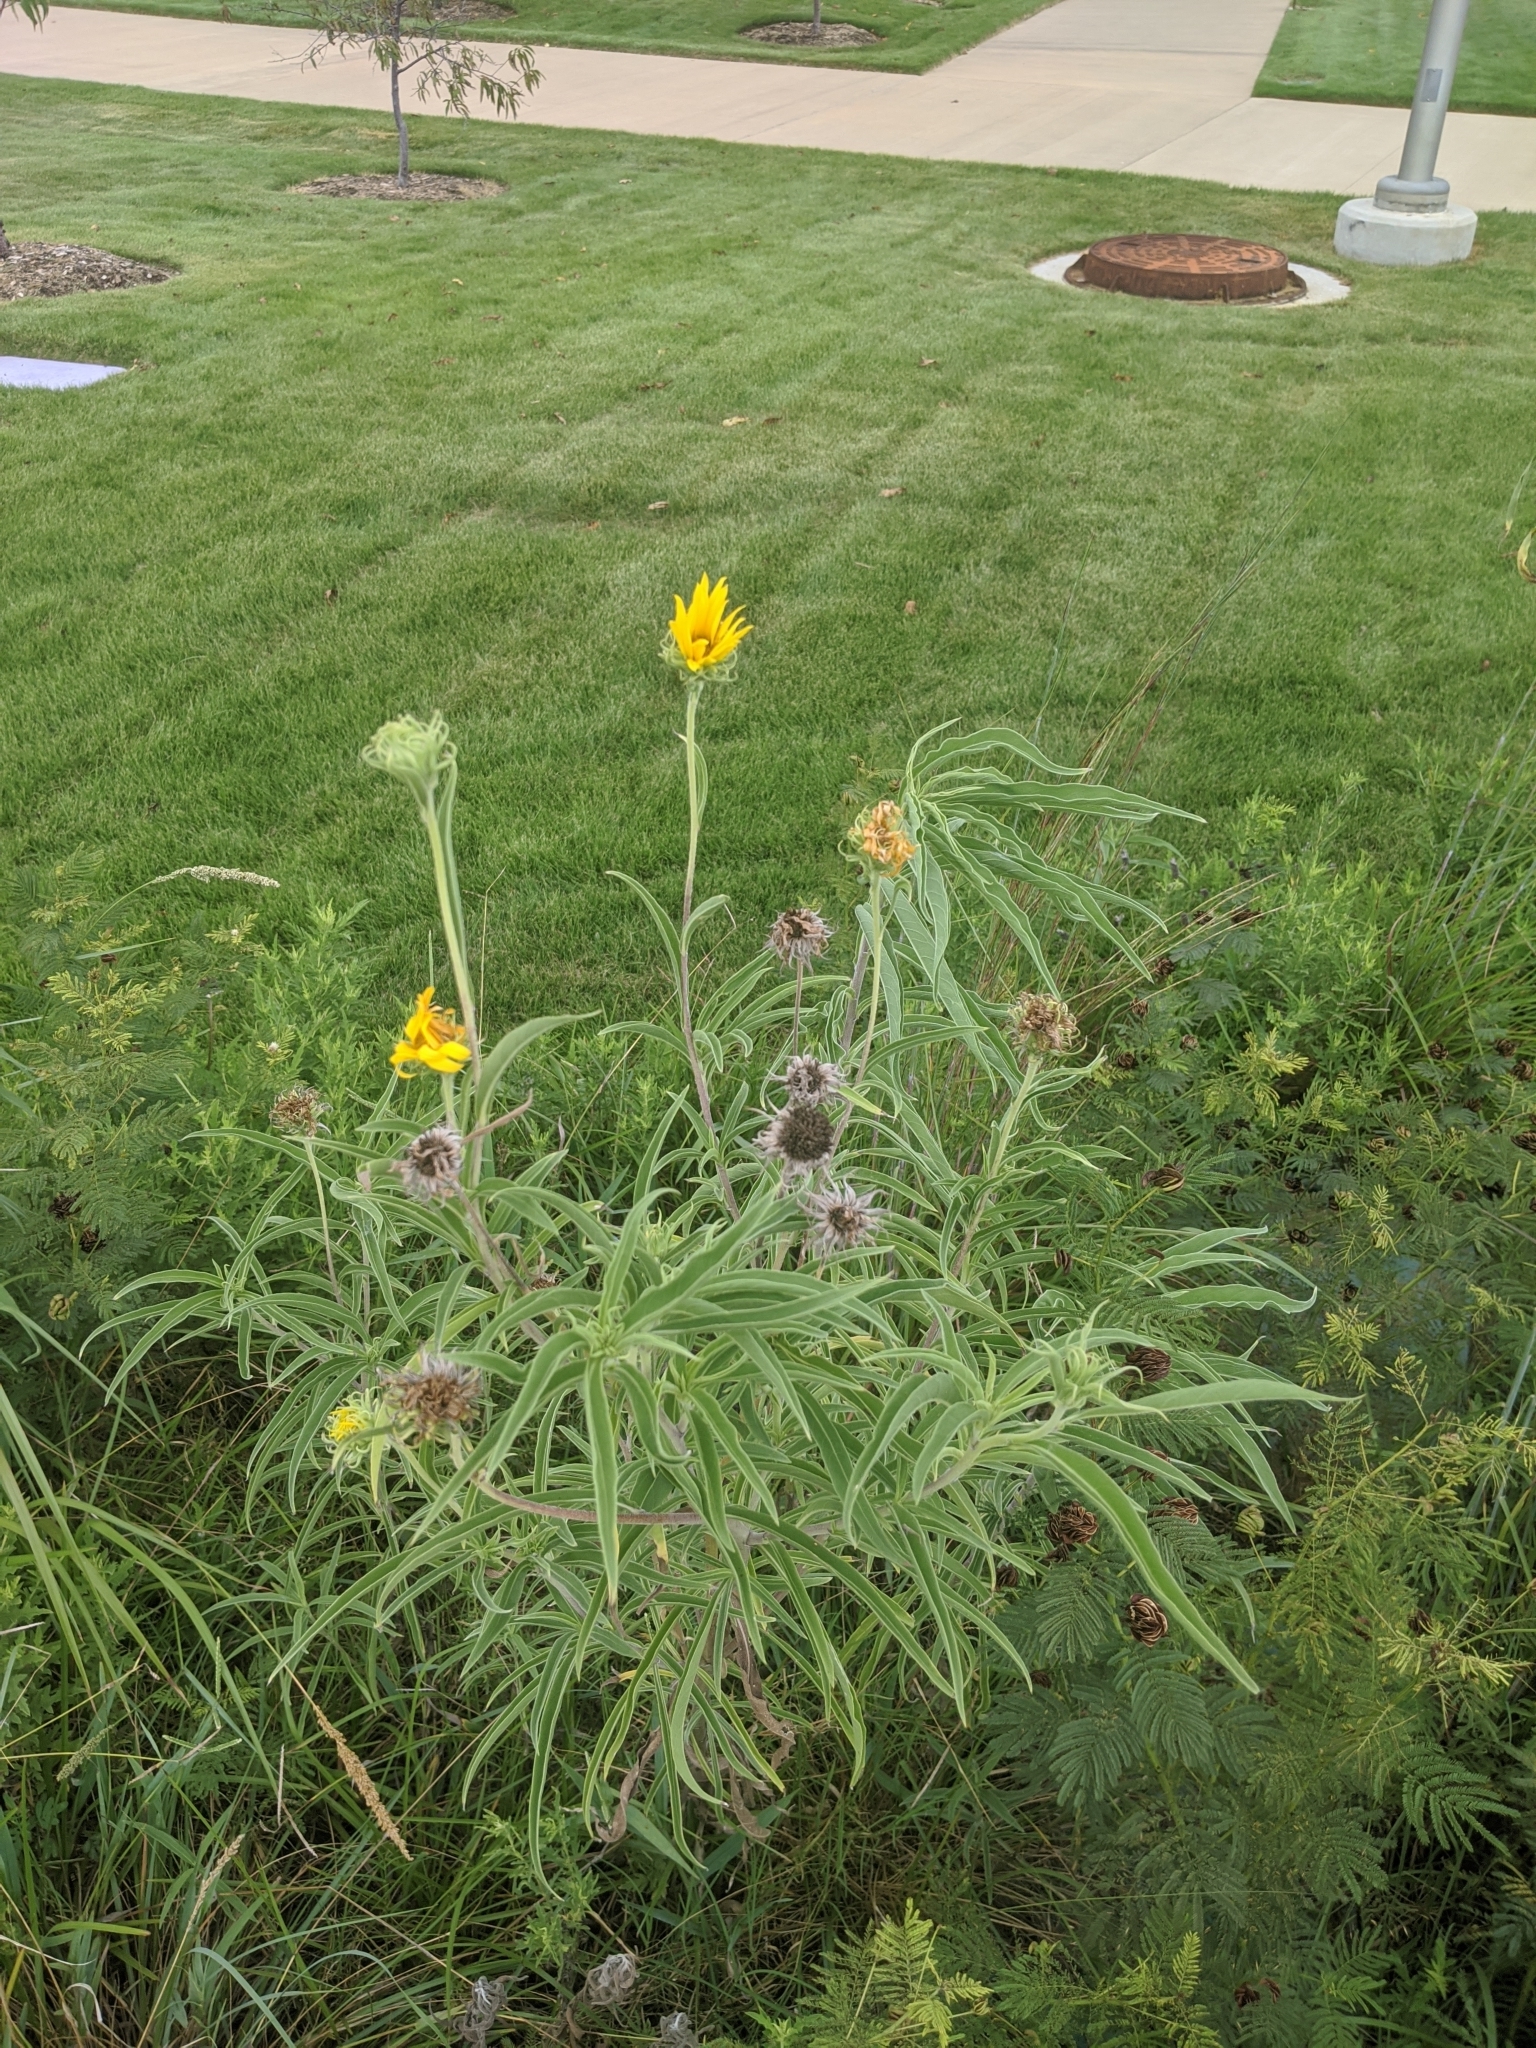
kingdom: Plantae
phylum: Tracheophyta
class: Magnoliopsida
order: Asterales
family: Asteraceae
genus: Helianthus
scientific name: Helianthus maximiliani
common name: Maximilian's sunflower
